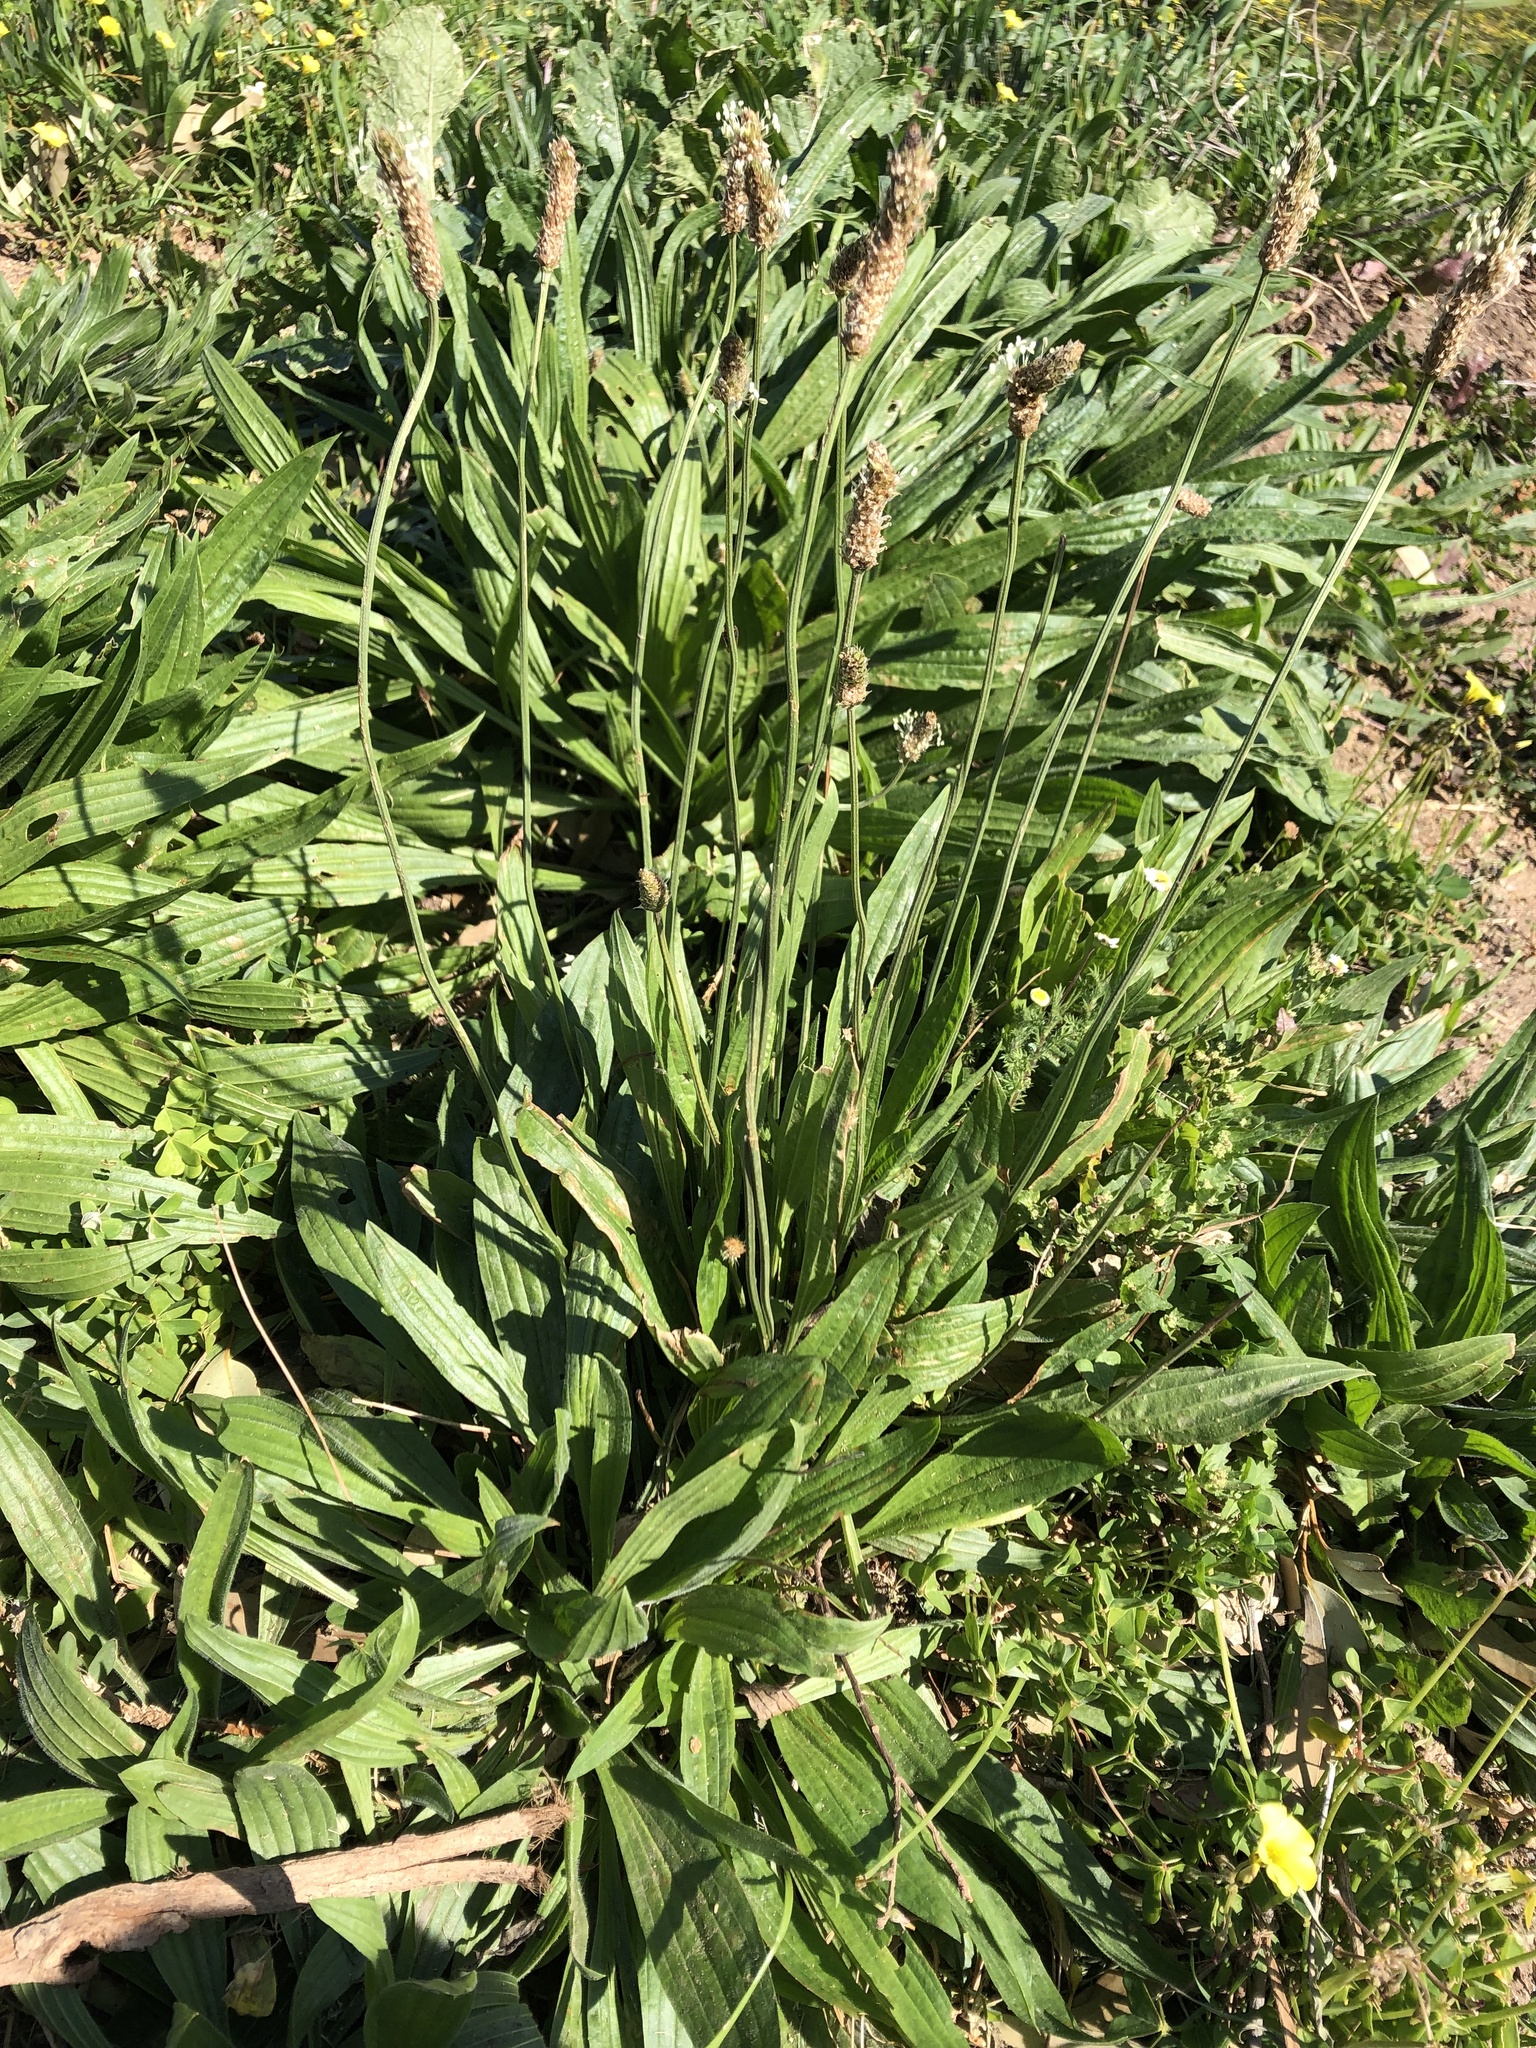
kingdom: Plantae
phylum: Tracheophyta
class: Magnoliopsida
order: Lamiales
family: Plantaginaceae
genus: Plantago
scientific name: Plantago lanceolata
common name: Ribwort plantain
